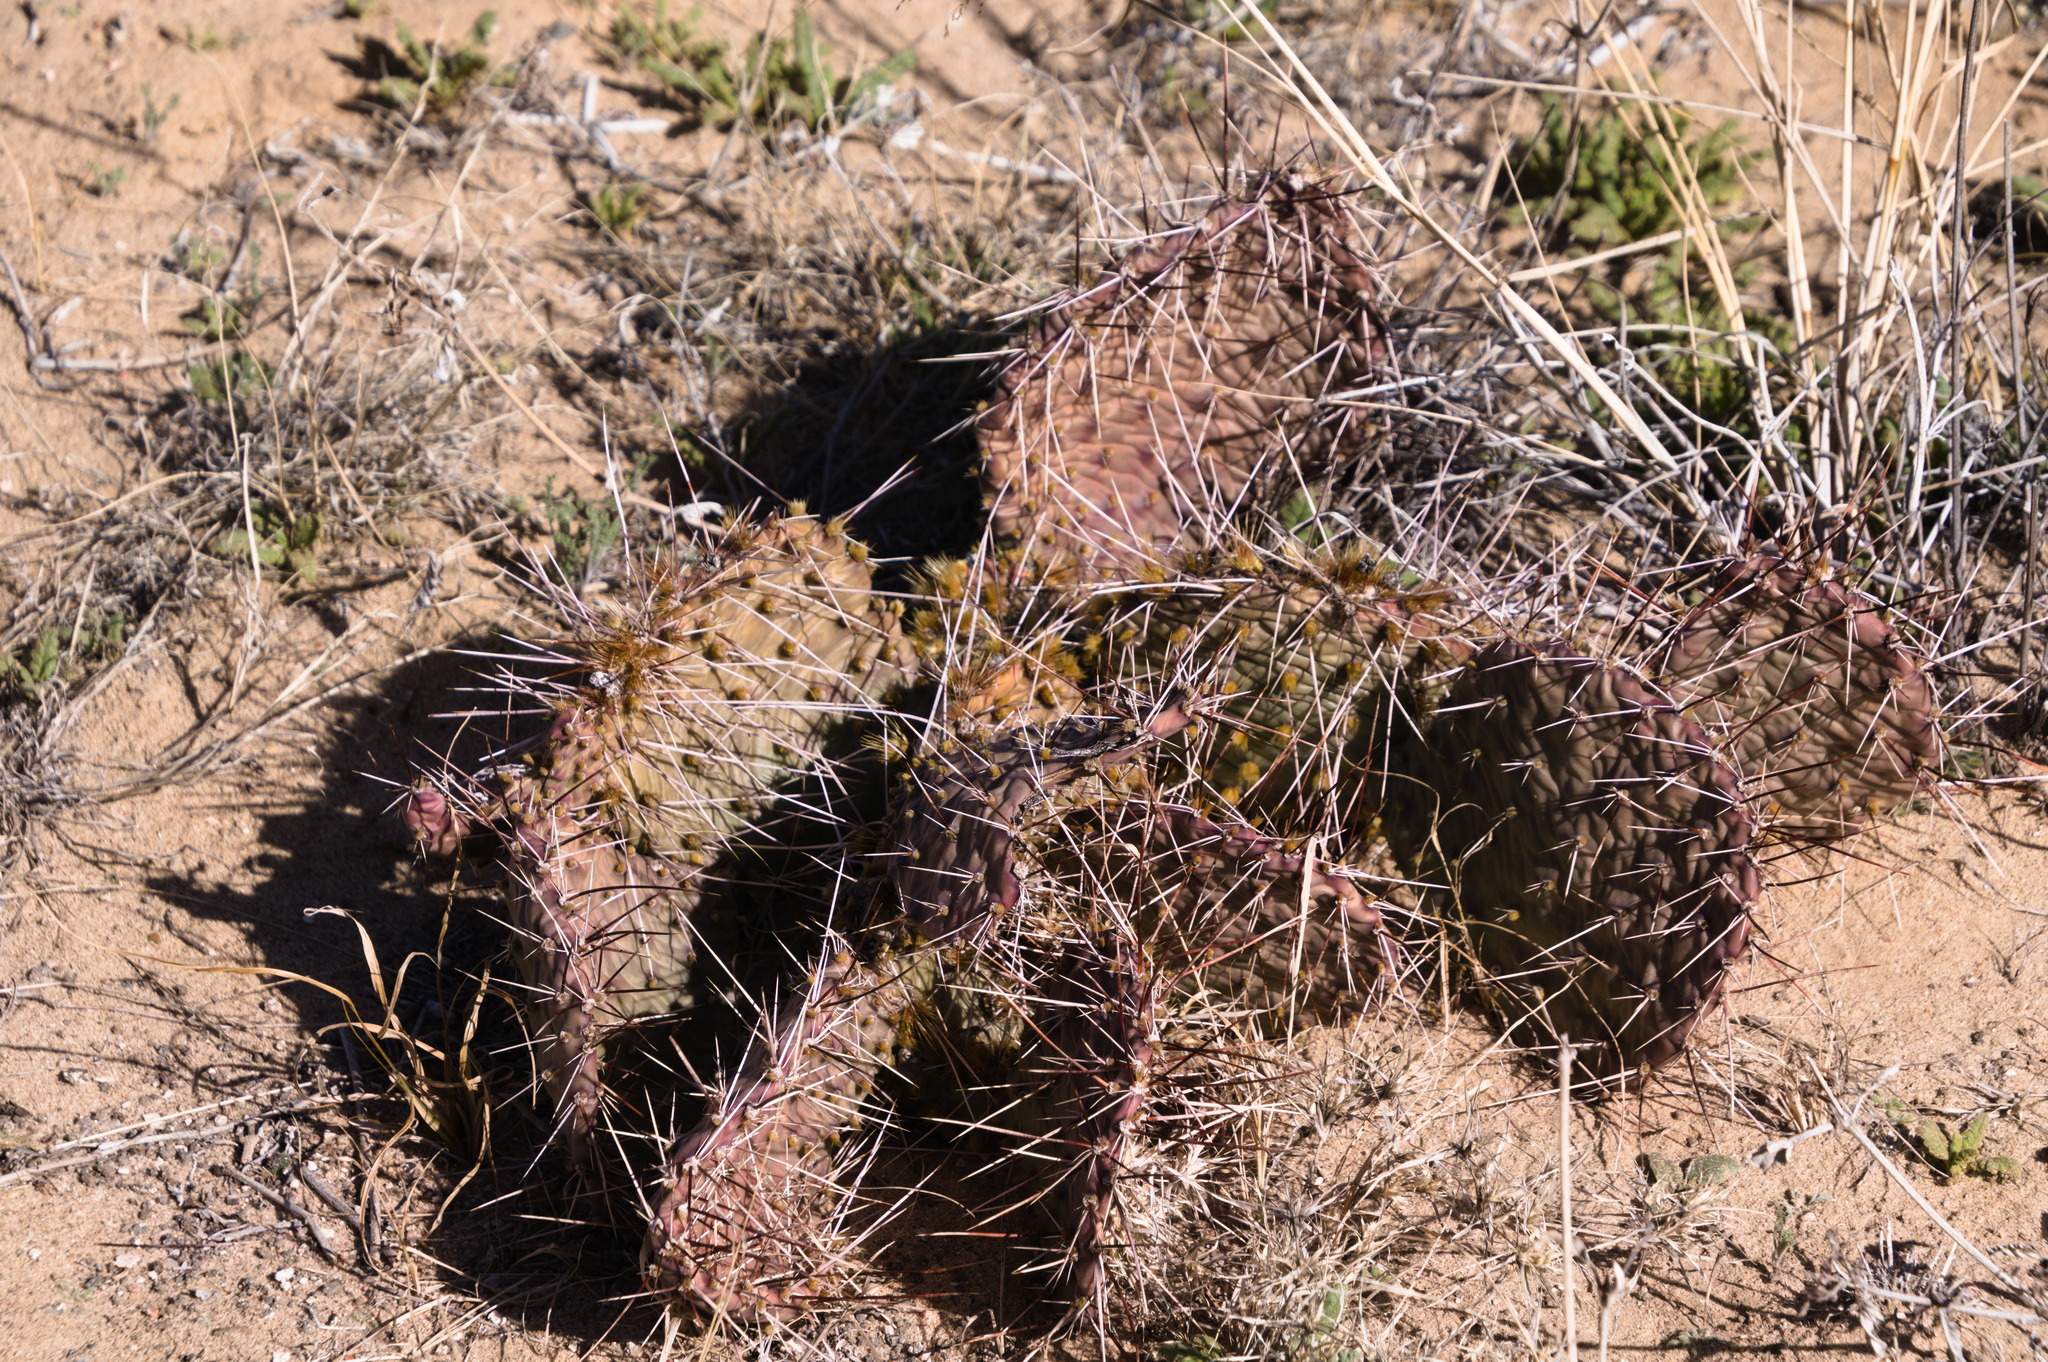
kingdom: Plantae
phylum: Tracheophyta
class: Magnoliopsida
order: Caryophyllales
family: Cactaceae
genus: Opuntia
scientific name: Opuntia macrorhiza
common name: Grassland pricklypear
